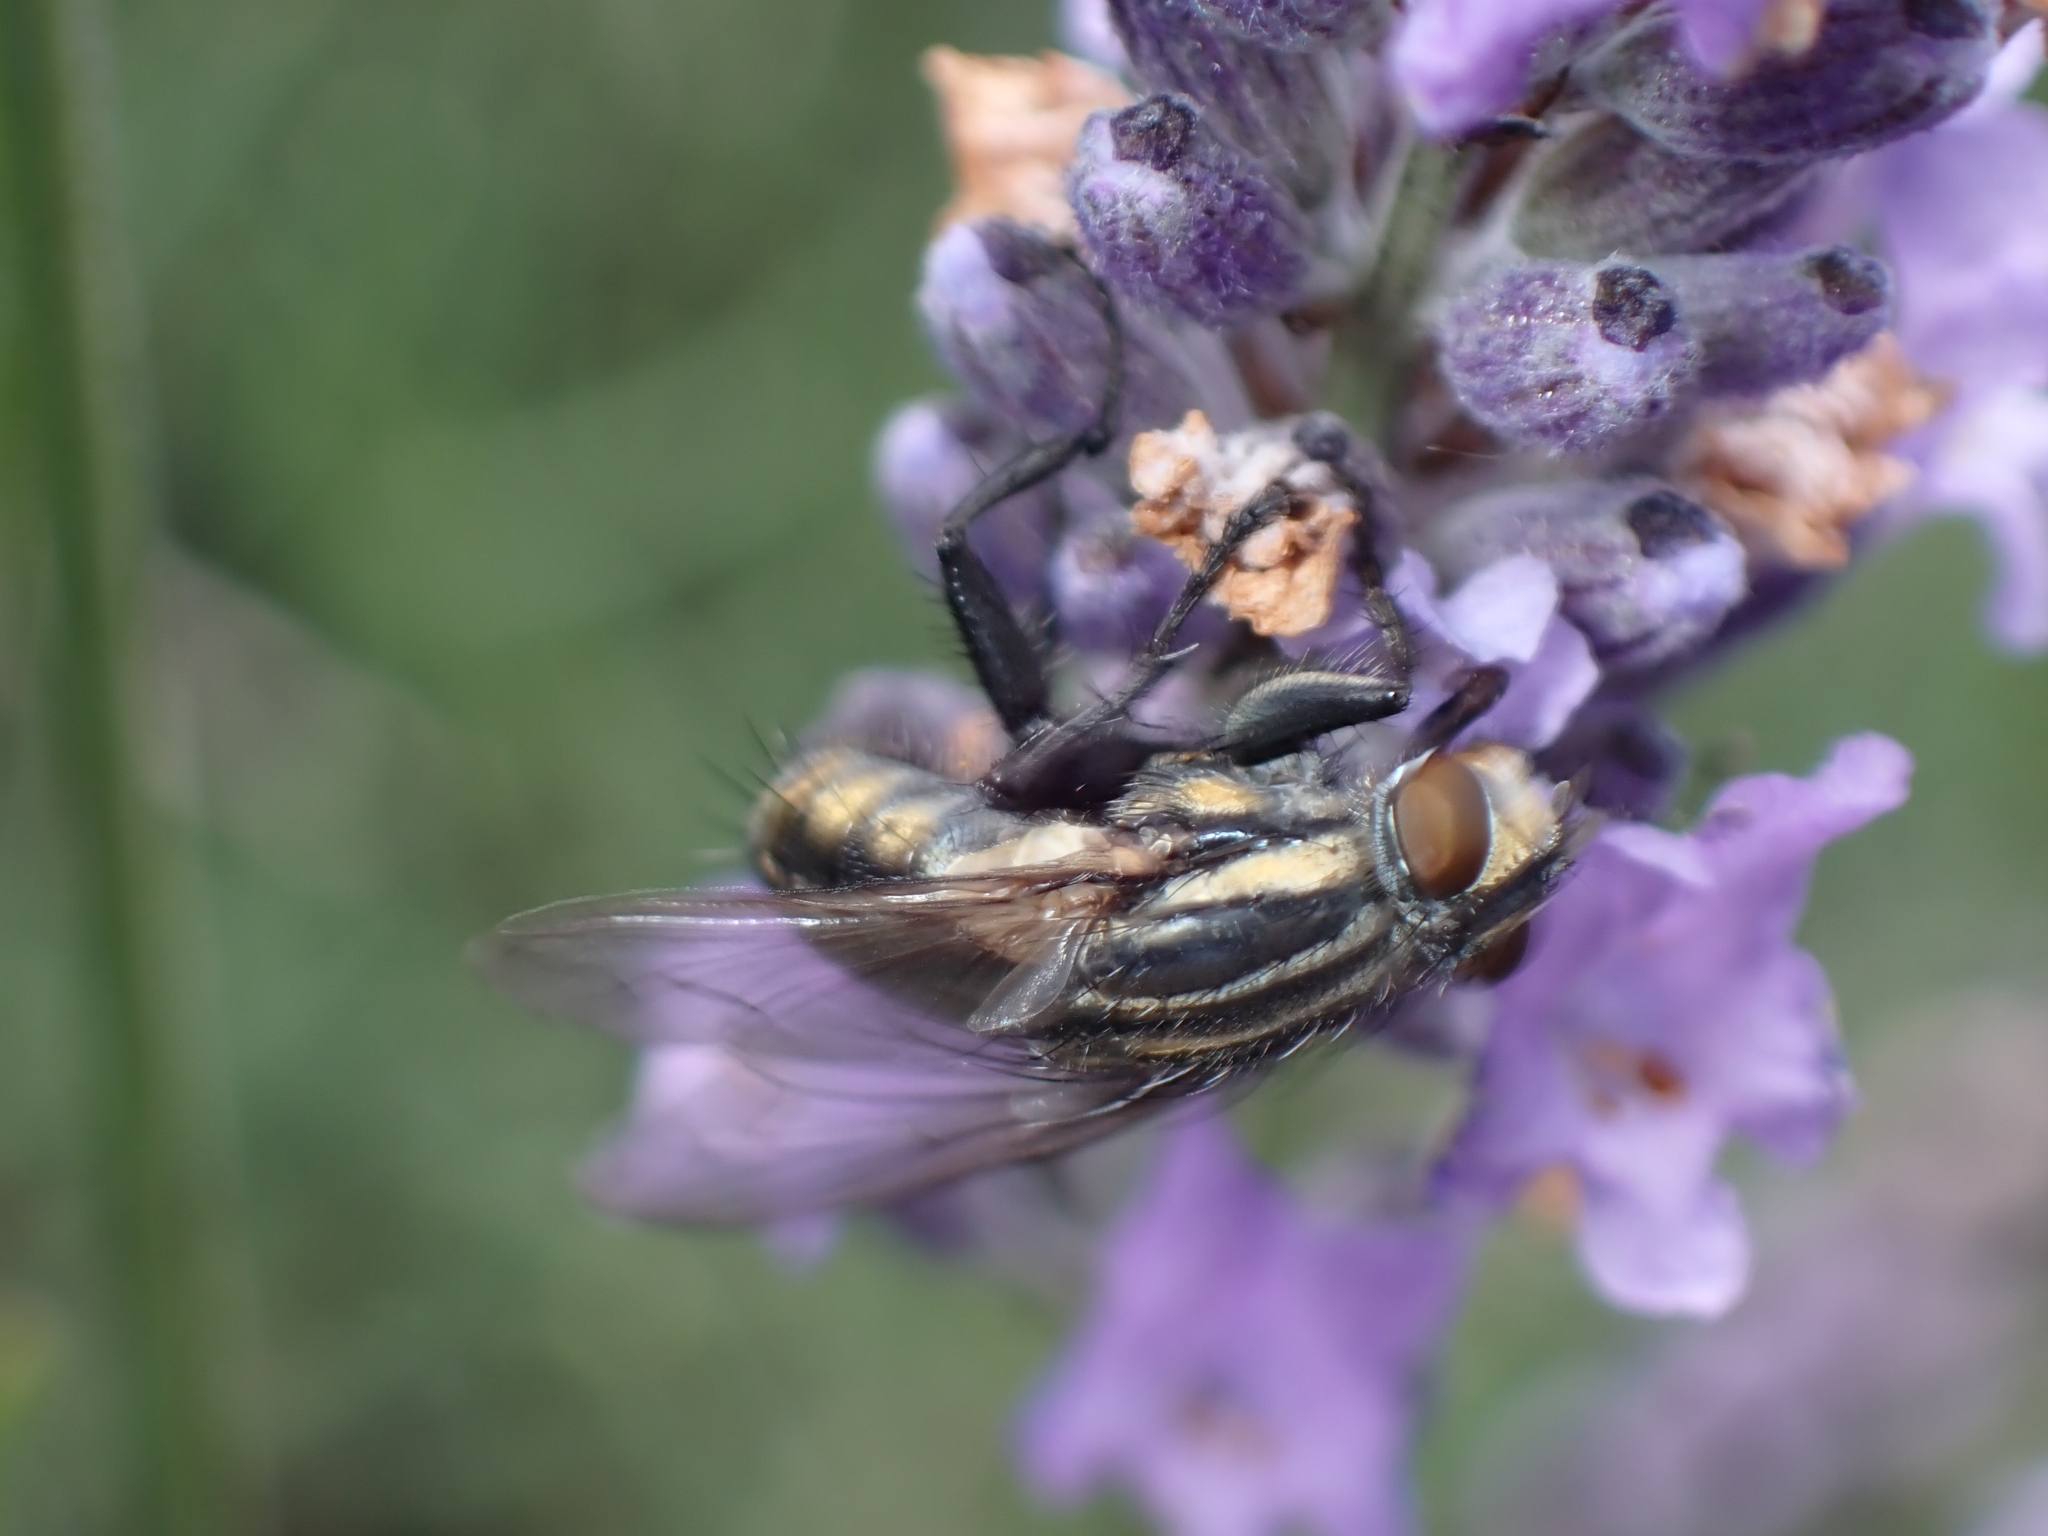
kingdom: Animalia
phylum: Arthropoda
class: Insecta
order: Diptera
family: Sarcophagidae
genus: Oxysarcodexia
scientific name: Oxysarcodexia varia
